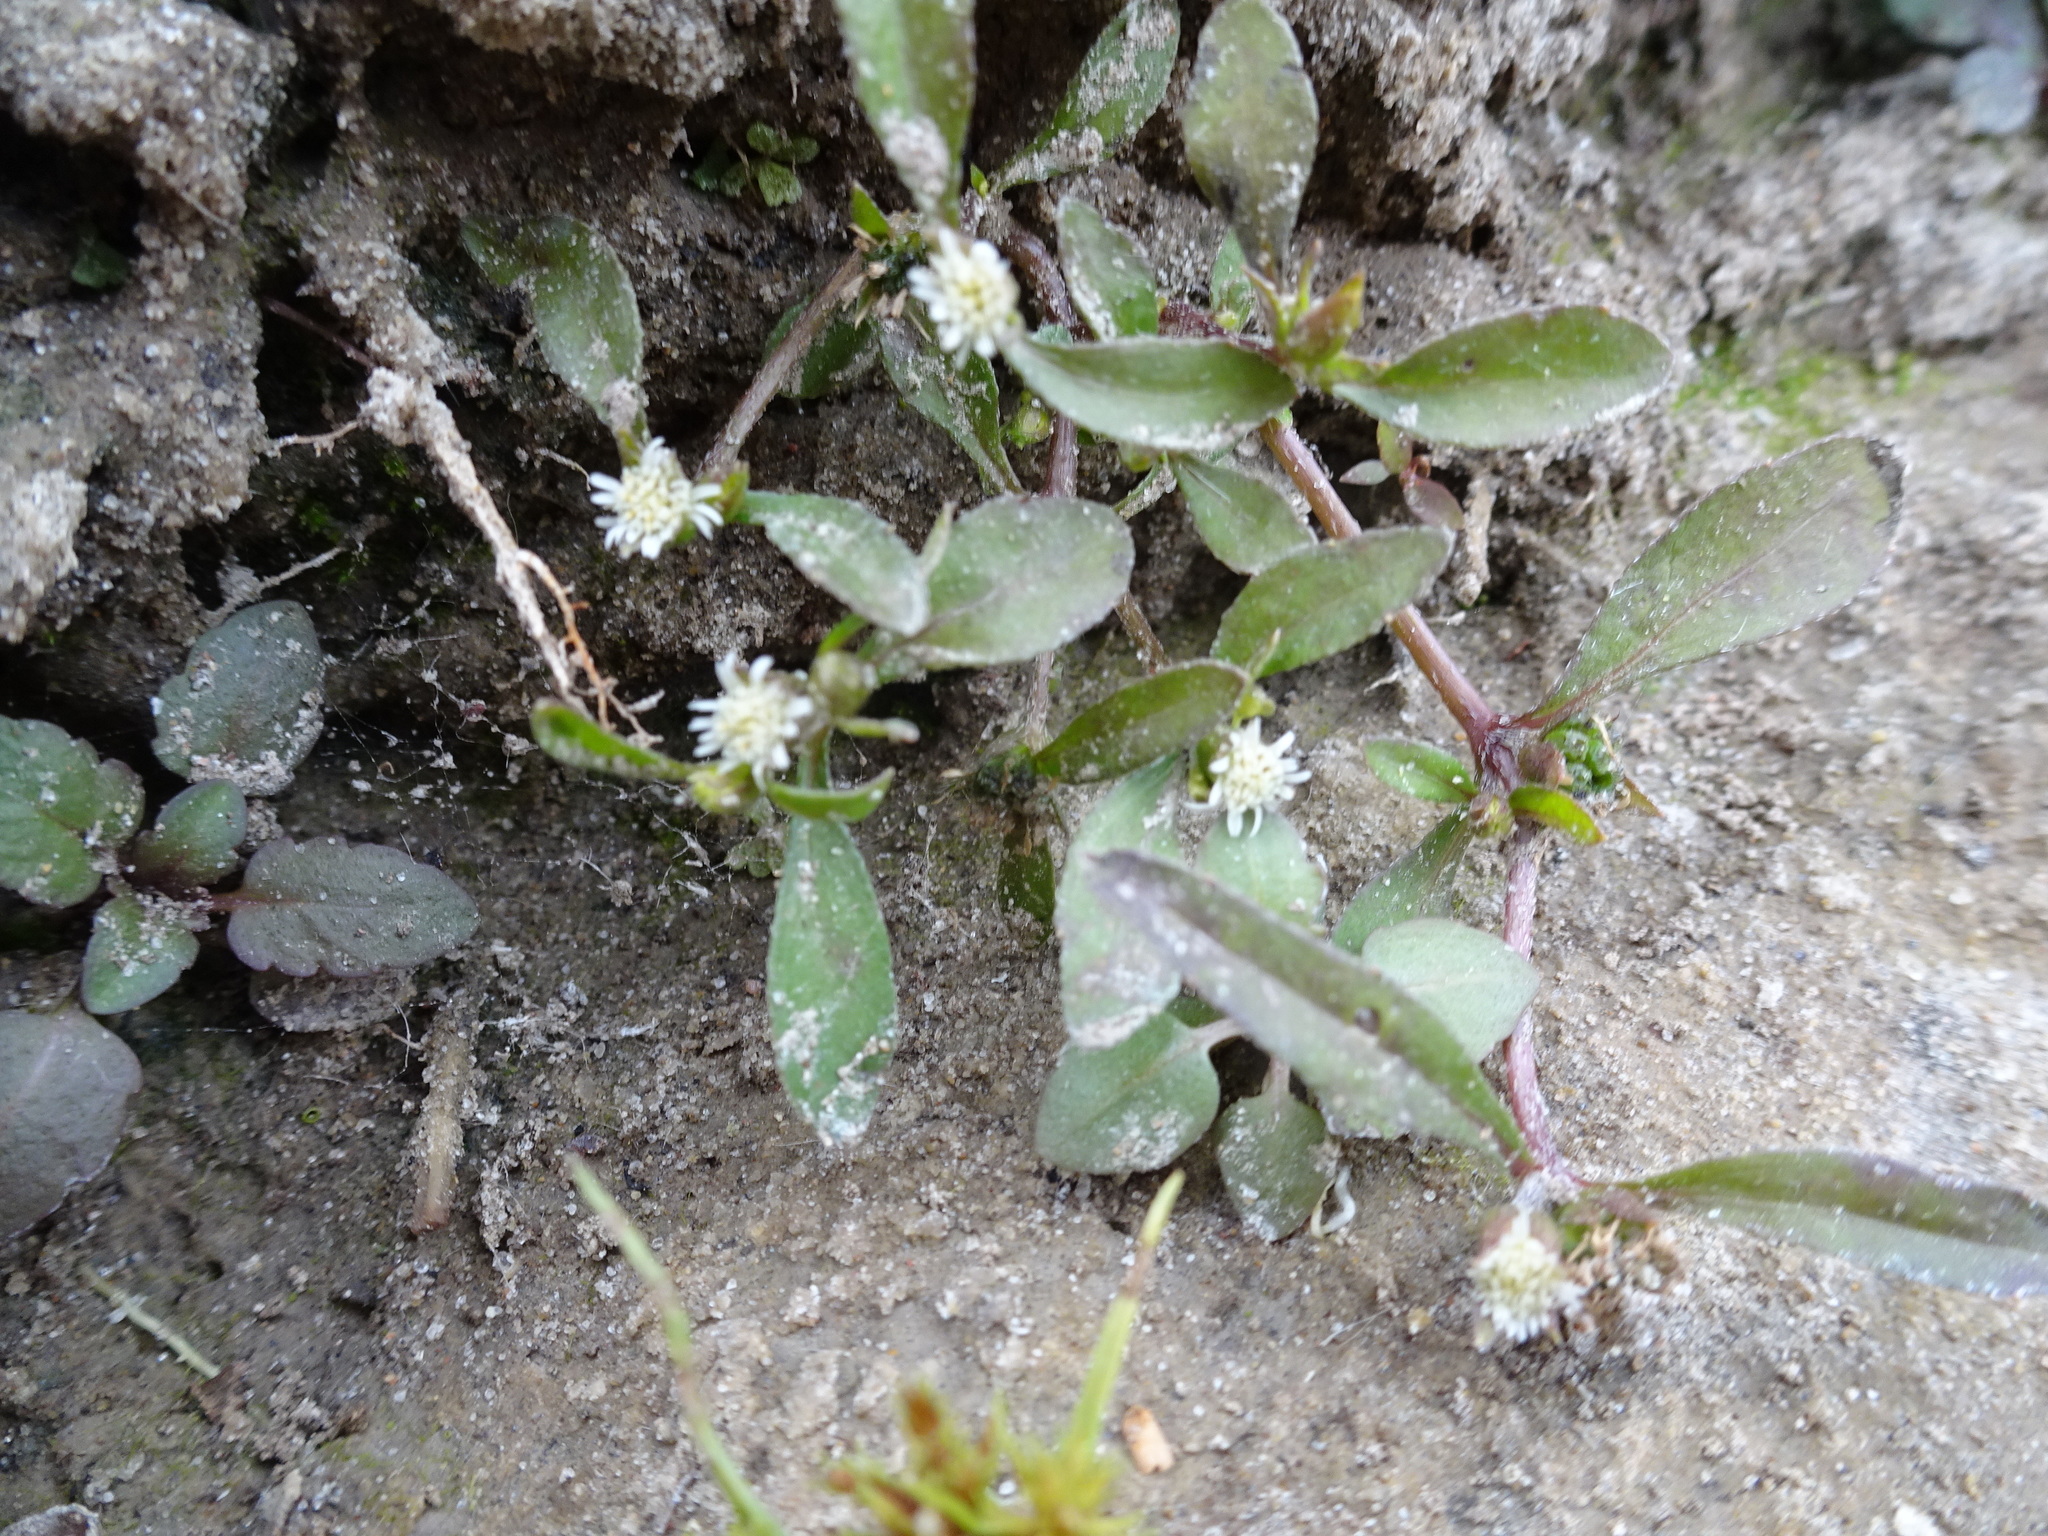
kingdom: Plantae
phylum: Tracheophyta
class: Magnoliopsida
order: Asterales
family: Asteraceae
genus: Eclipta
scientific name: Eclipta prostrata
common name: False daisy
